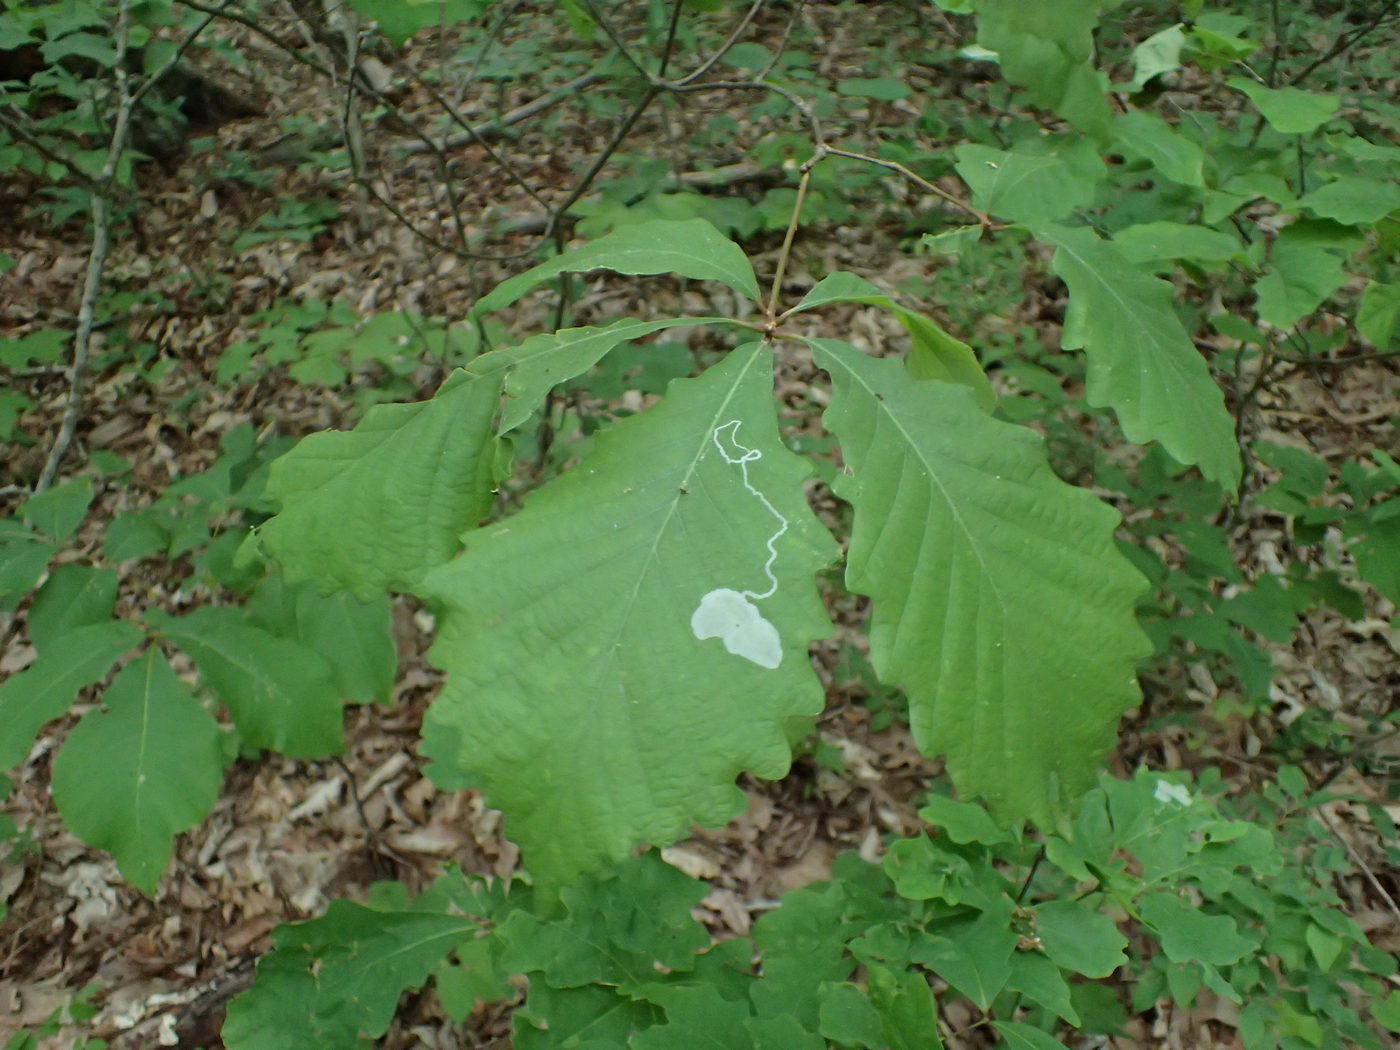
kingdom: Animalia
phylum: Arthropoda
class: Insecta
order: Lepidoptera
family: Gracillariidae
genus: Cryptolectica
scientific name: Cryptolectica
